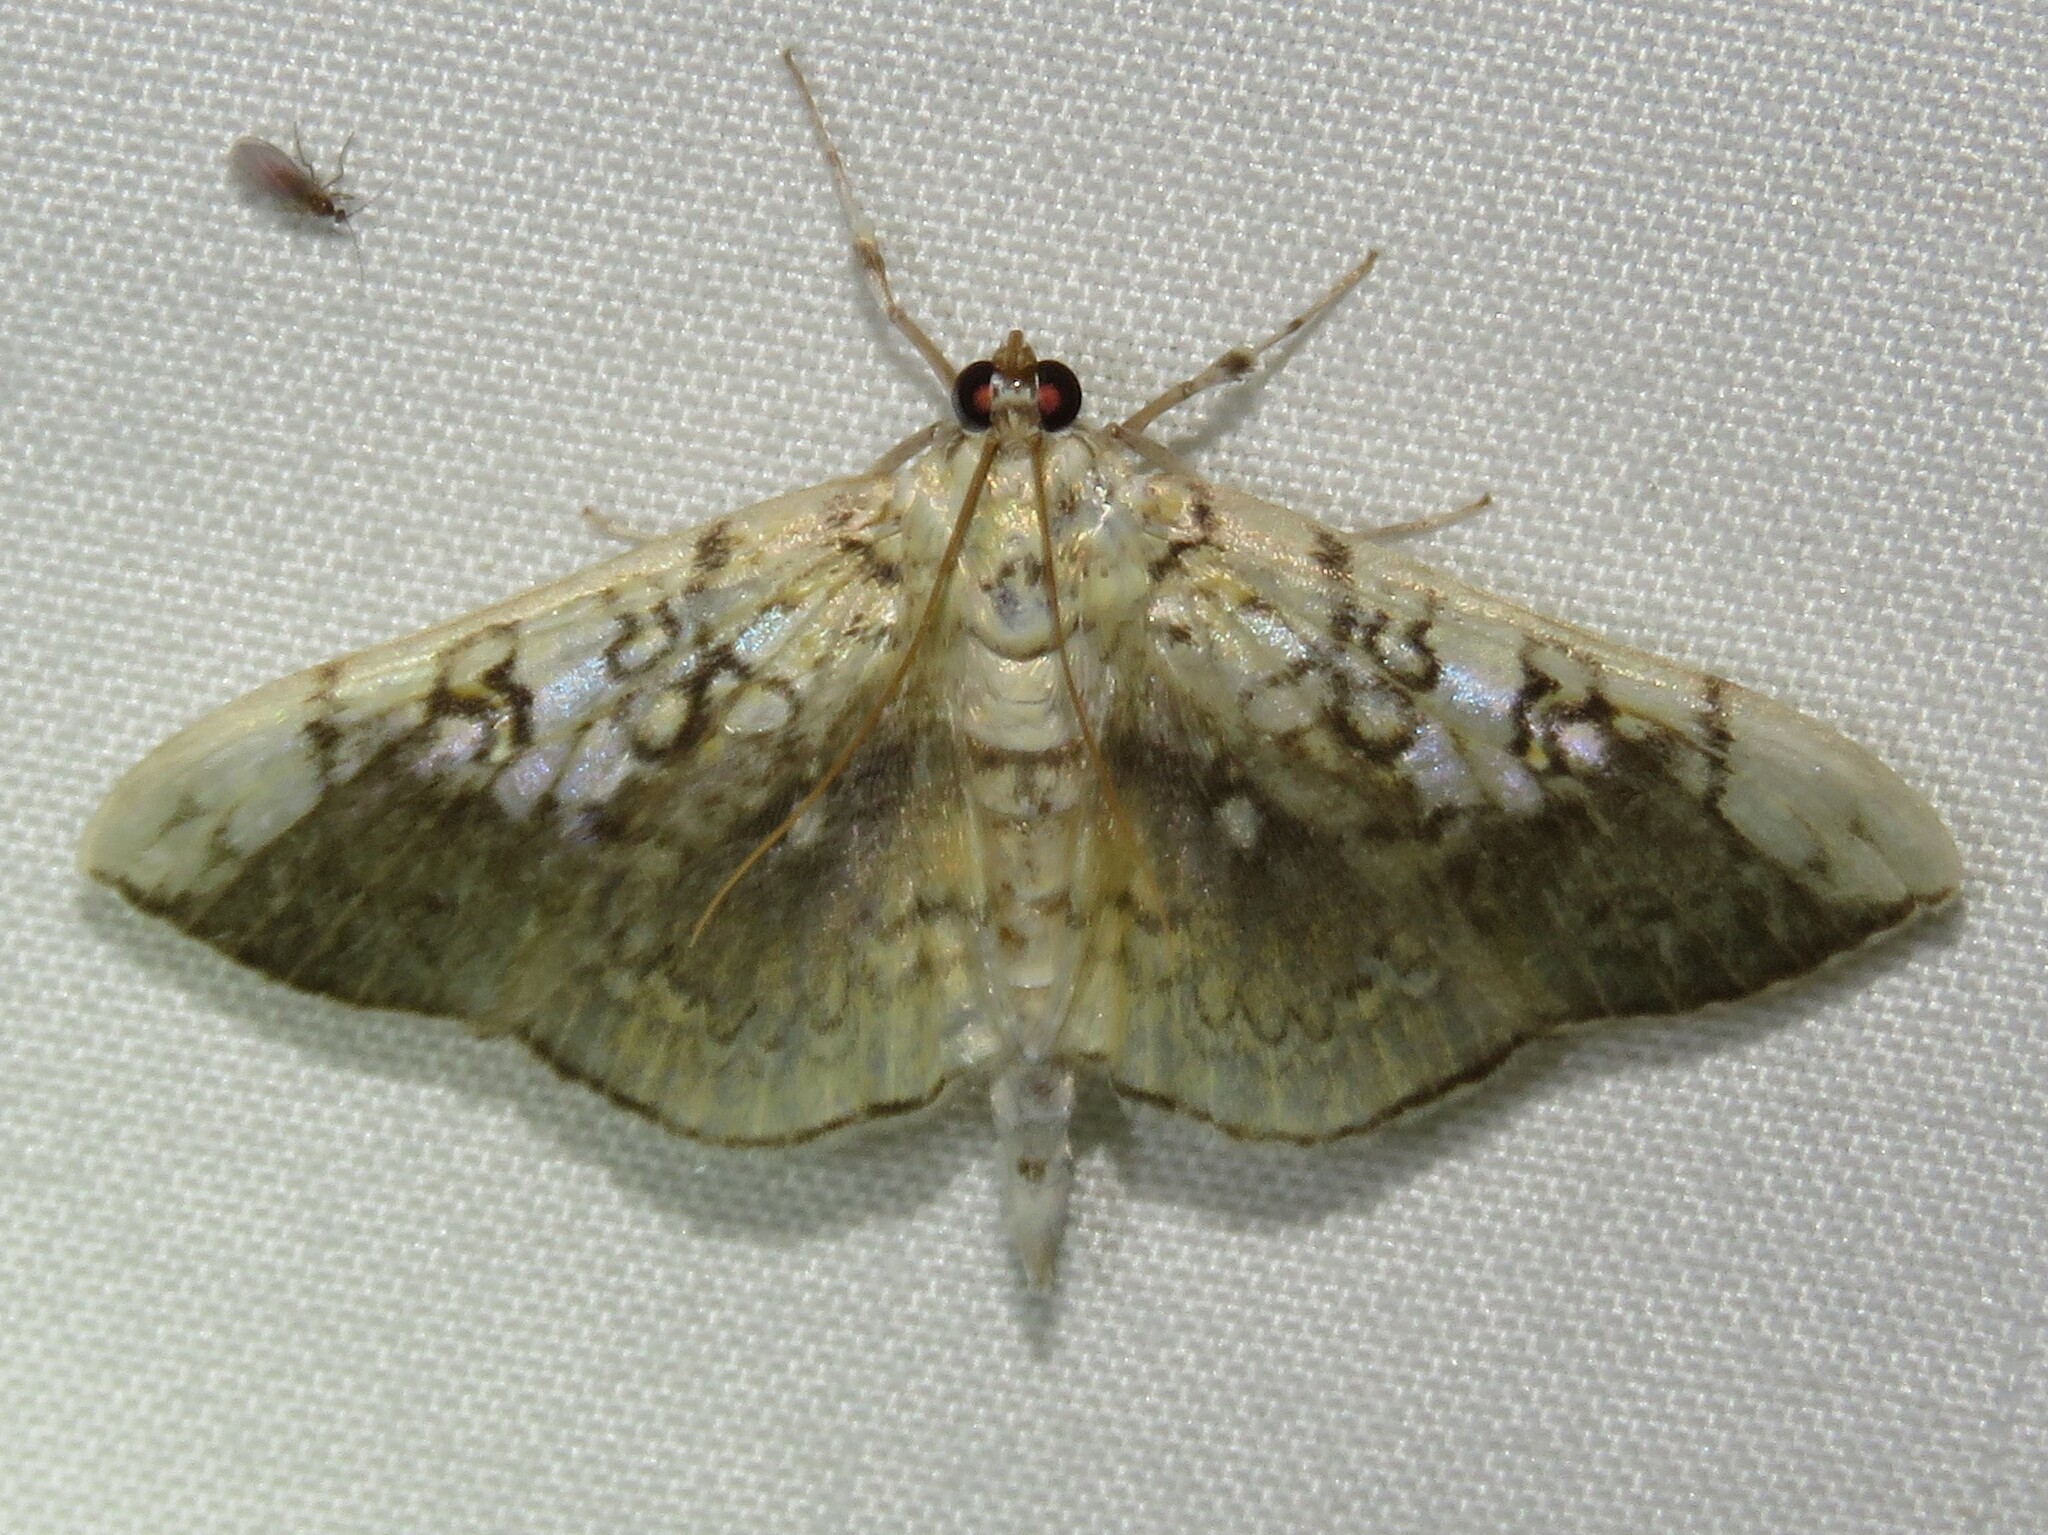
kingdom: Animalia
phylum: Arthropoda
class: Insecta
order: Lepidoptera
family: Crambidae
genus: Pantographa
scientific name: Pantographa limata
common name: Basswood leafroller moth
